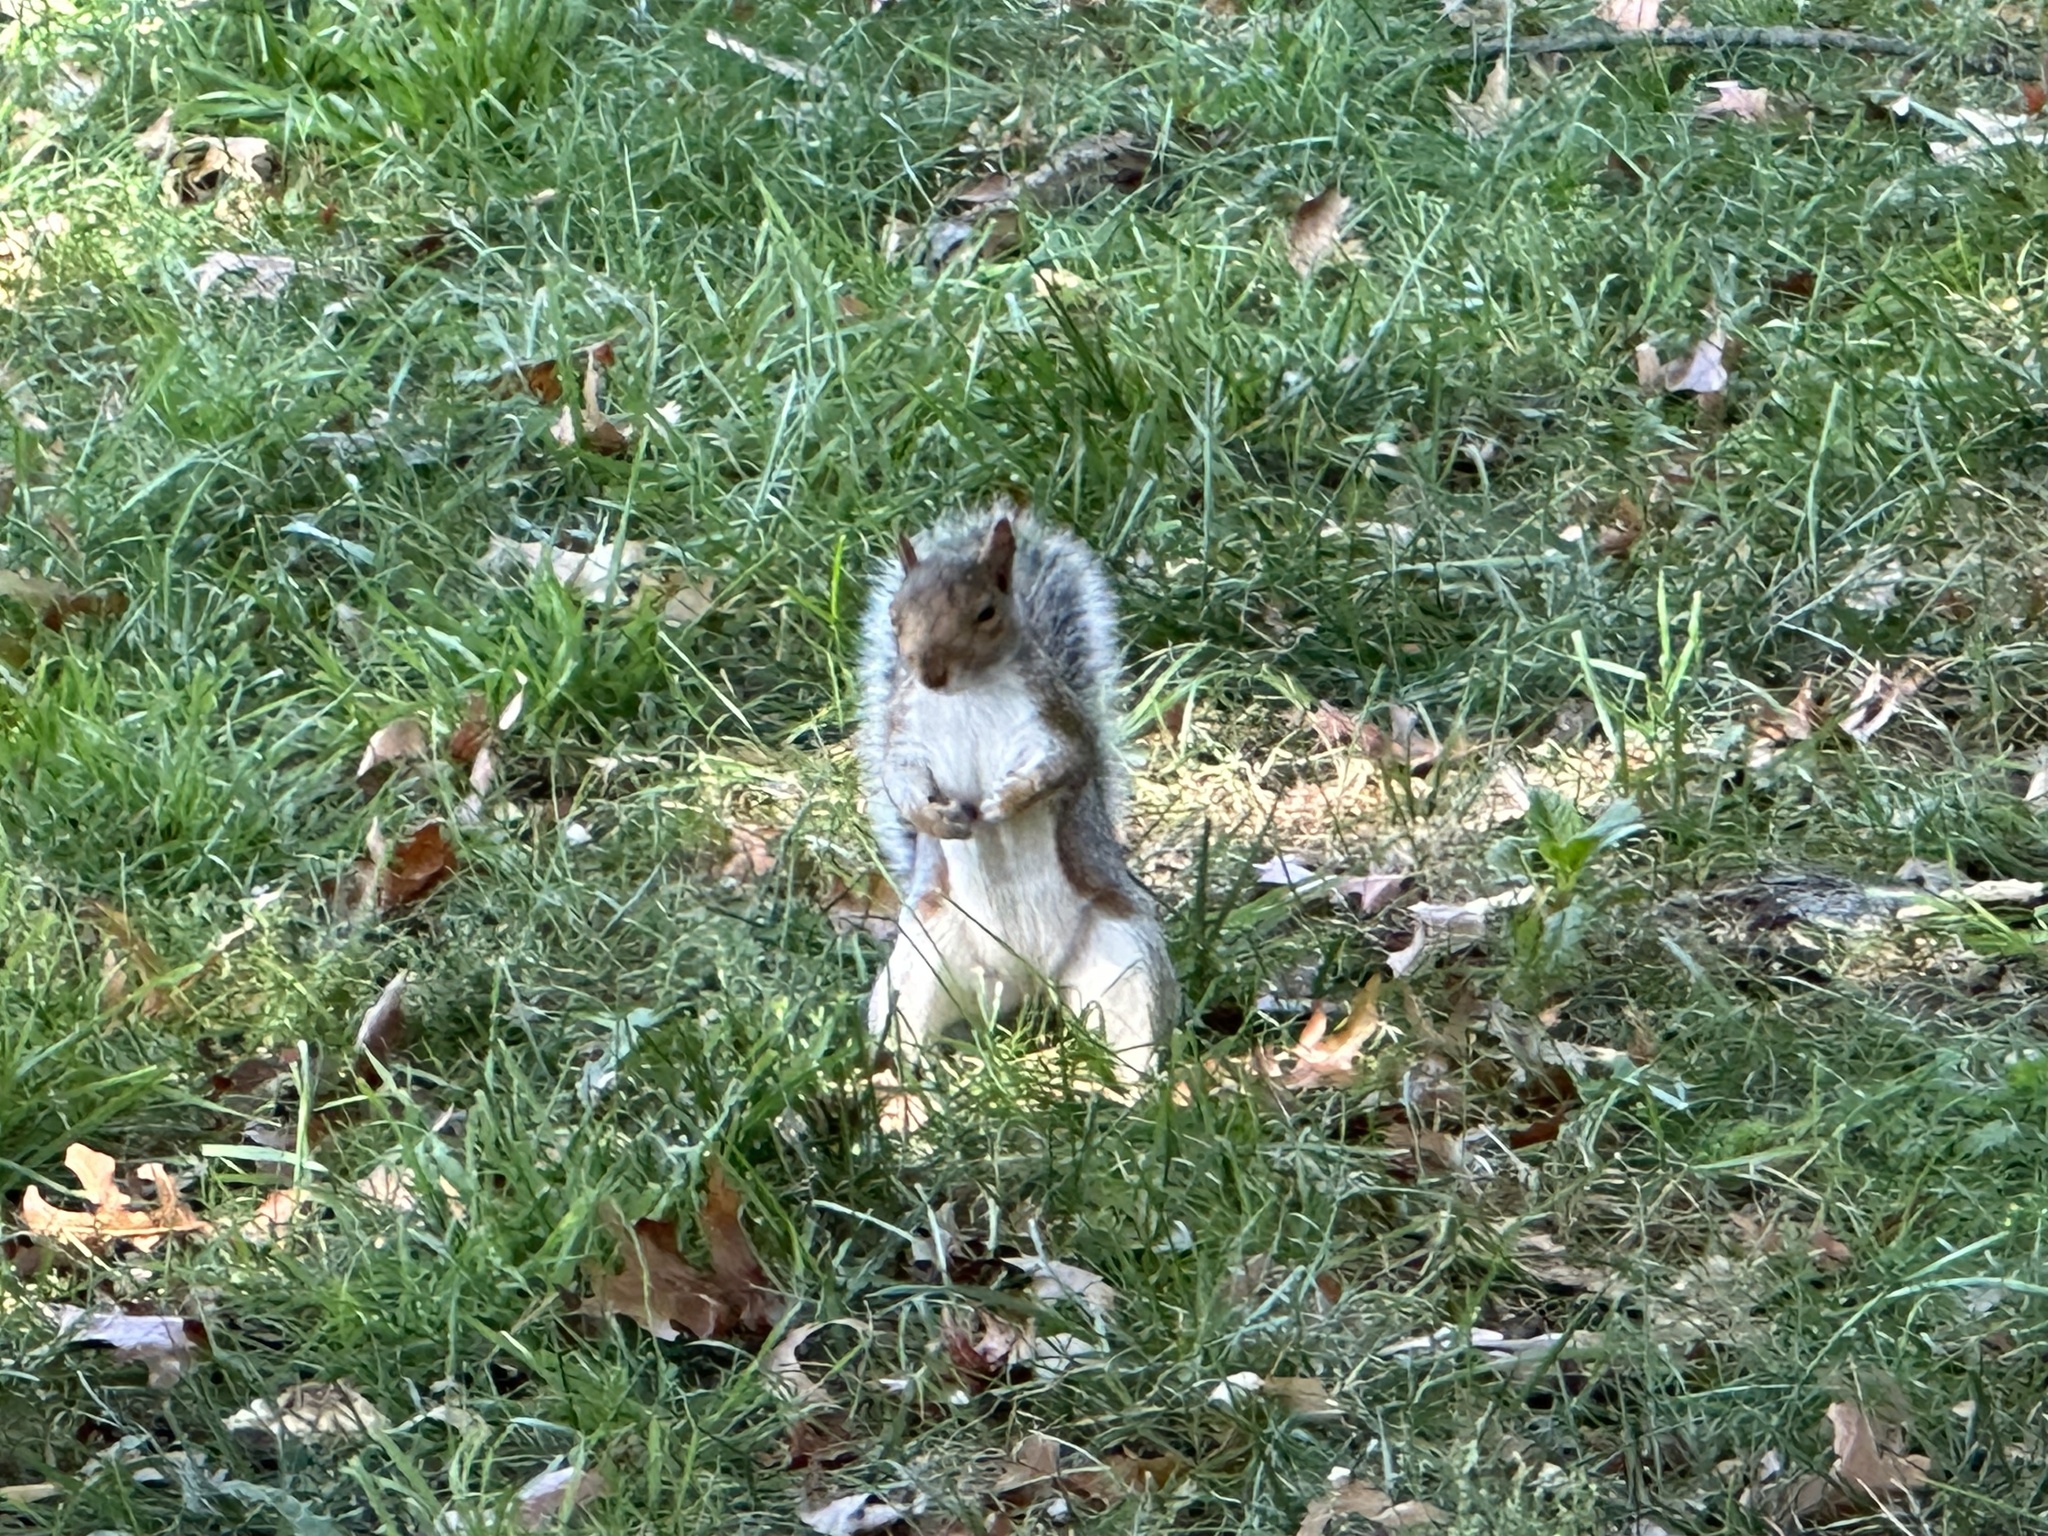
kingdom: Animalia
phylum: Chordata
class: Mammalia
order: Rodentia
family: Sciuridae
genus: Sciurus
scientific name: Sciurus carolinensis
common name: Eastern gray squirrel
